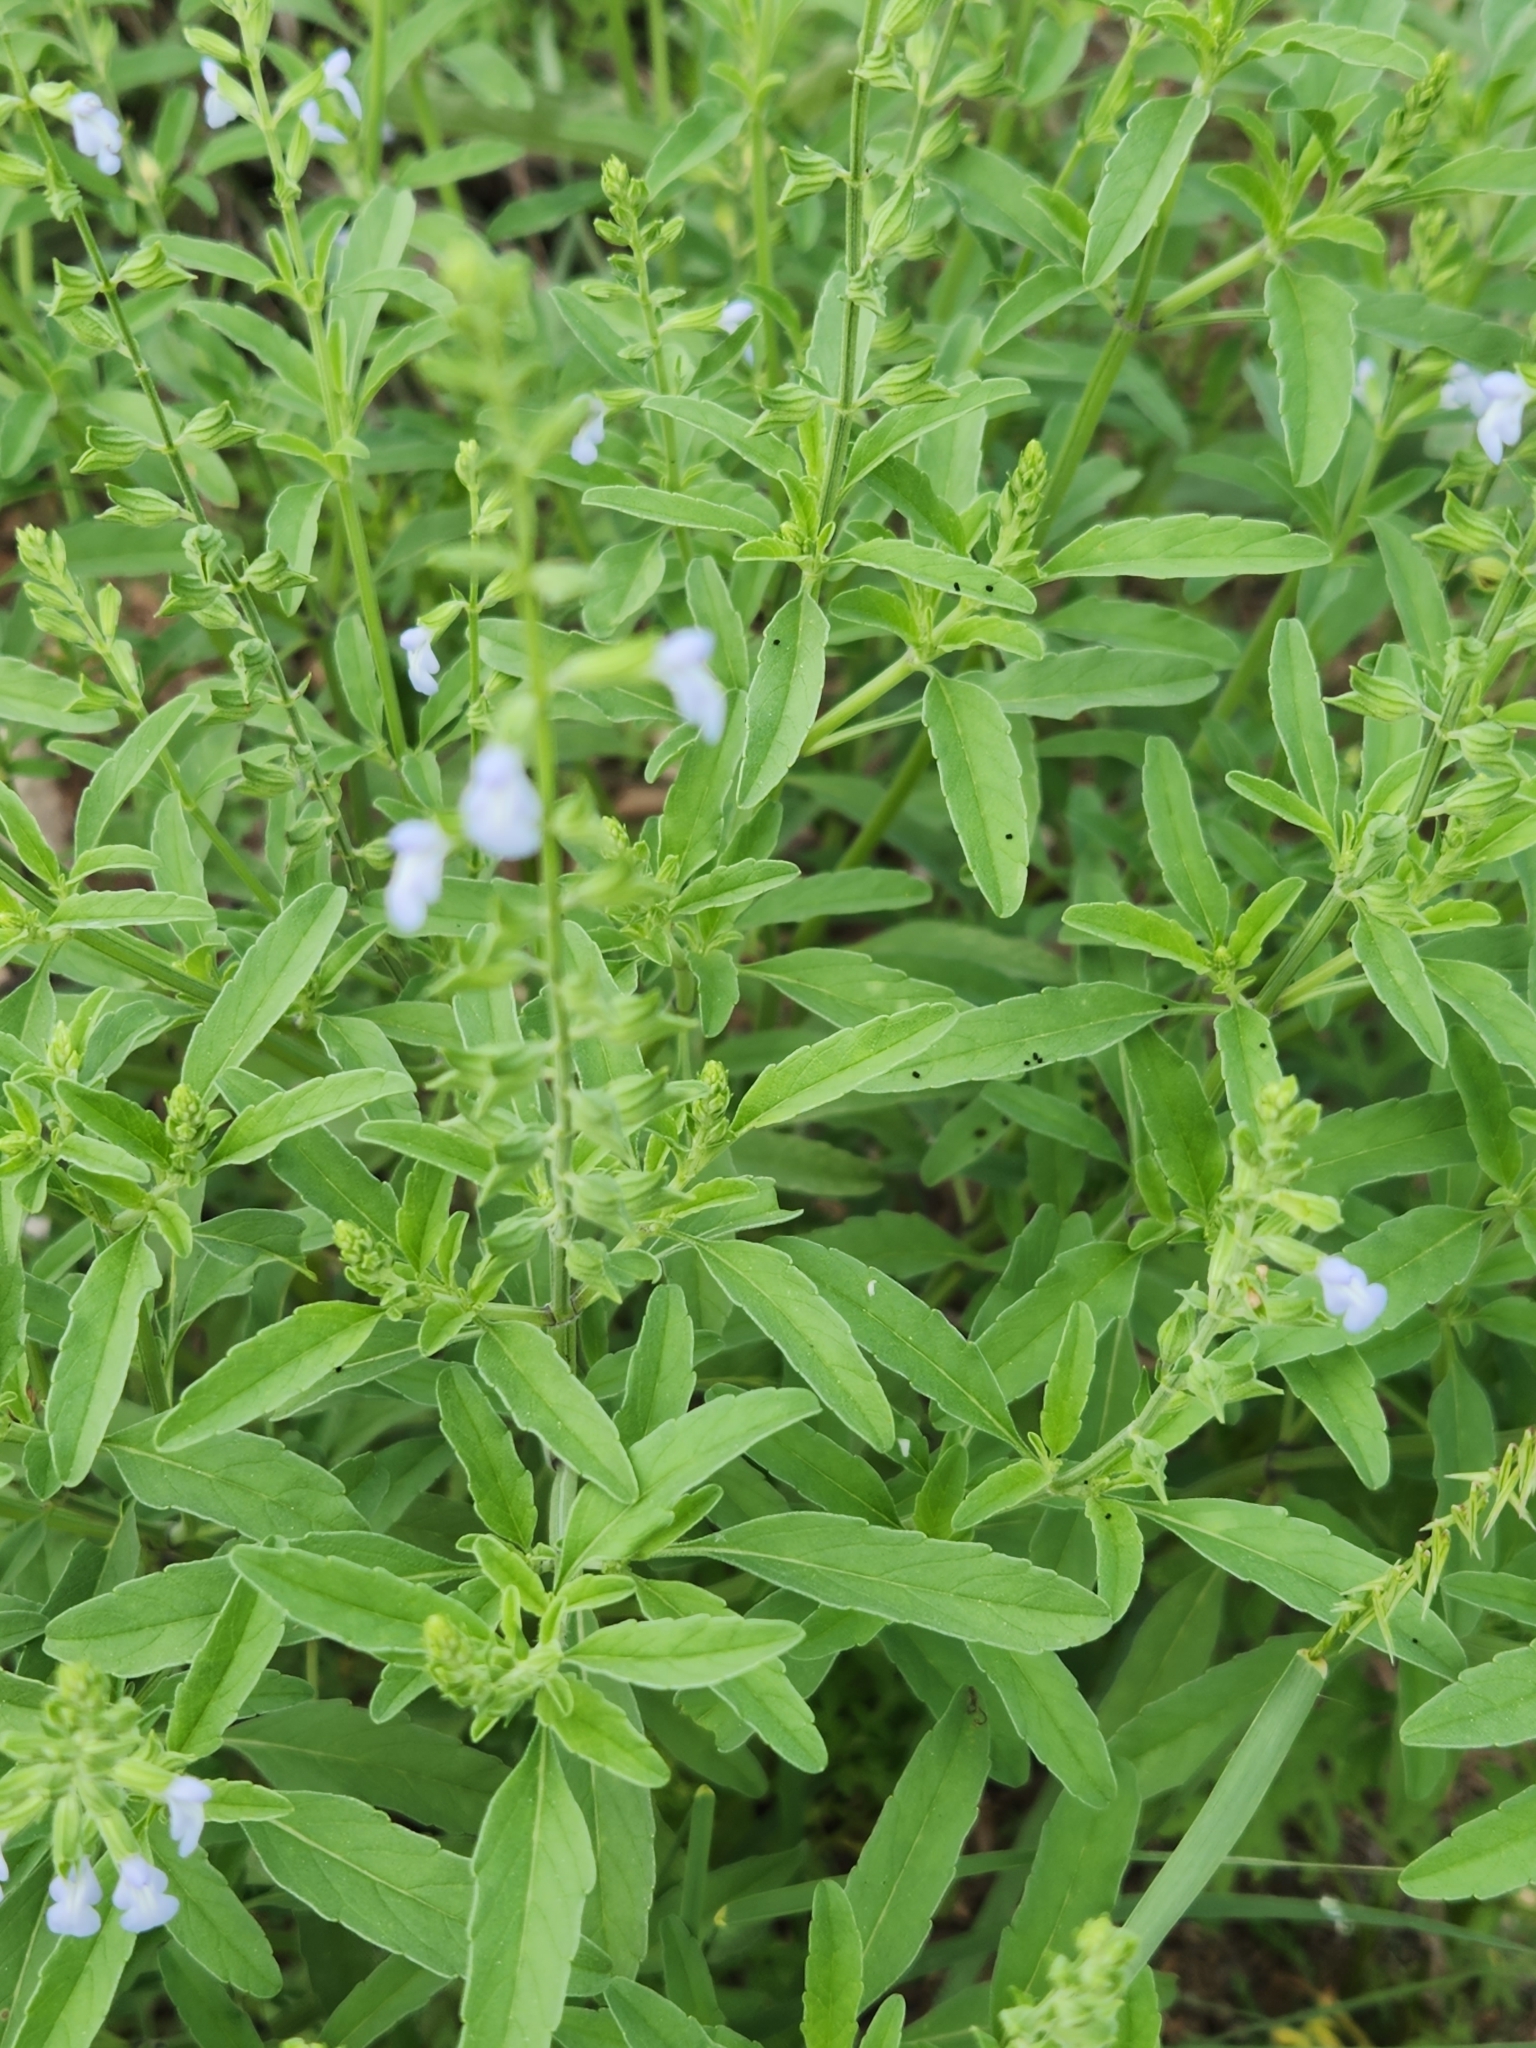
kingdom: Plantae
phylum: Tracheophyta
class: Magnoliopsida
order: Lamiales
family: Lamiaceae
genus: Salvia
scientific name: Salvia reflexa
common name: Mintweed
